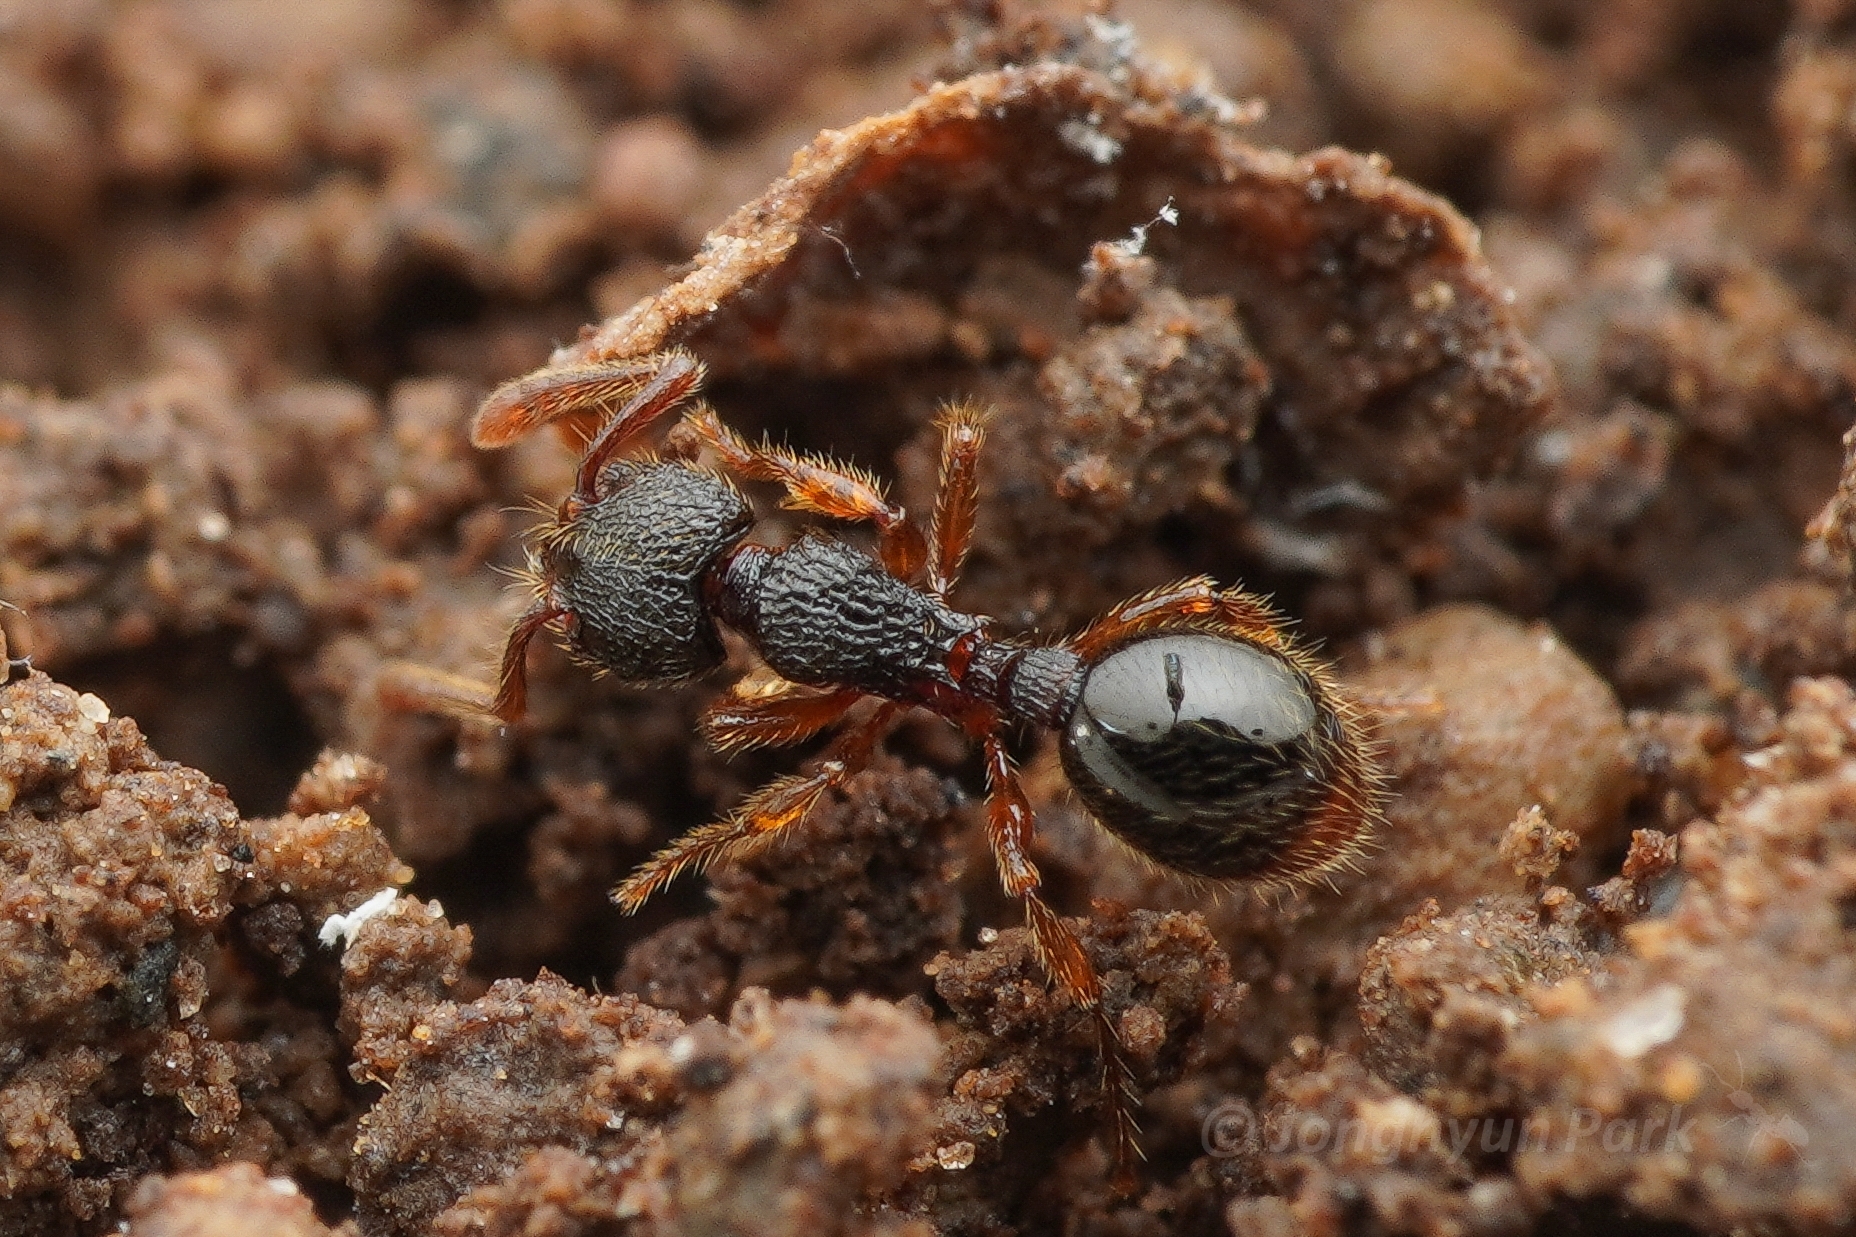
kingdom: Animalia
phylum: Arthropoda
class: Insecta
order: Hymenoptera
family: Formicidae
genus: Myrmecina
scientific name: Myrmecina nipponica
